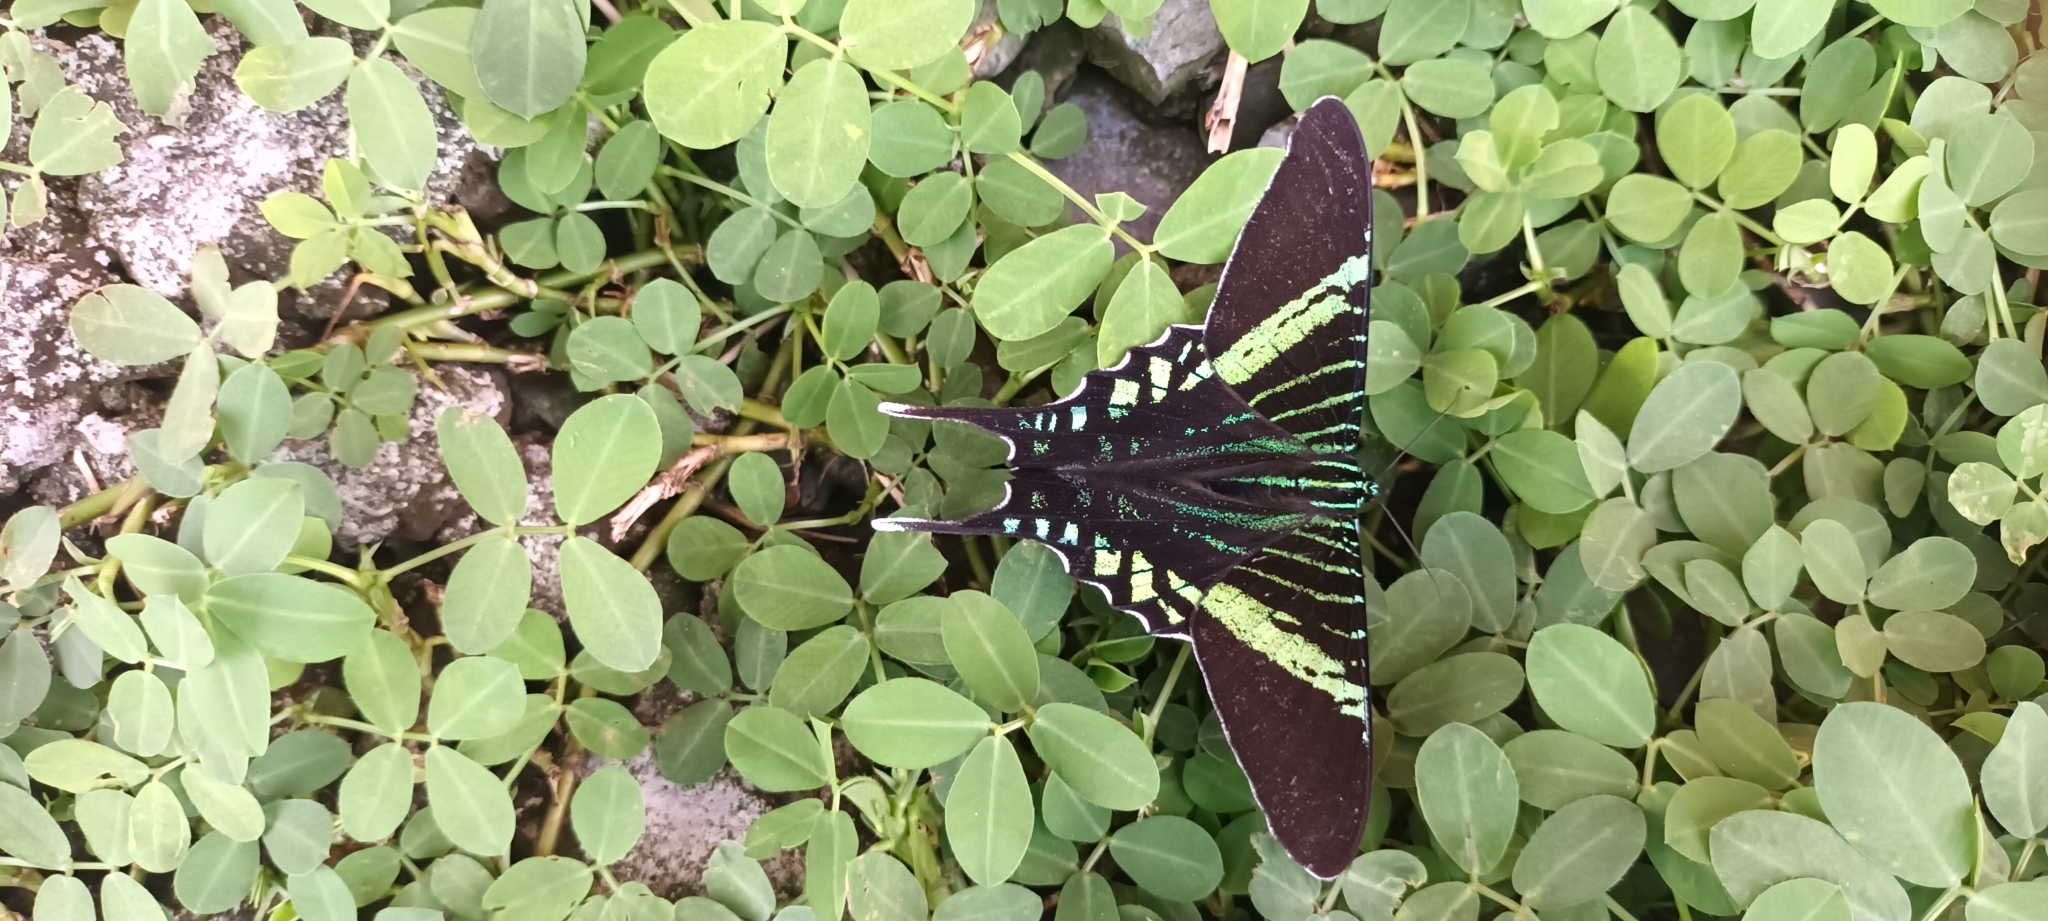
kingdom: Animalia
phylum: Arthropoda
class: Insecta
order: Lepidoptera
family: Uraniidae
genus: Urania
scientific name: Urania fulgens
